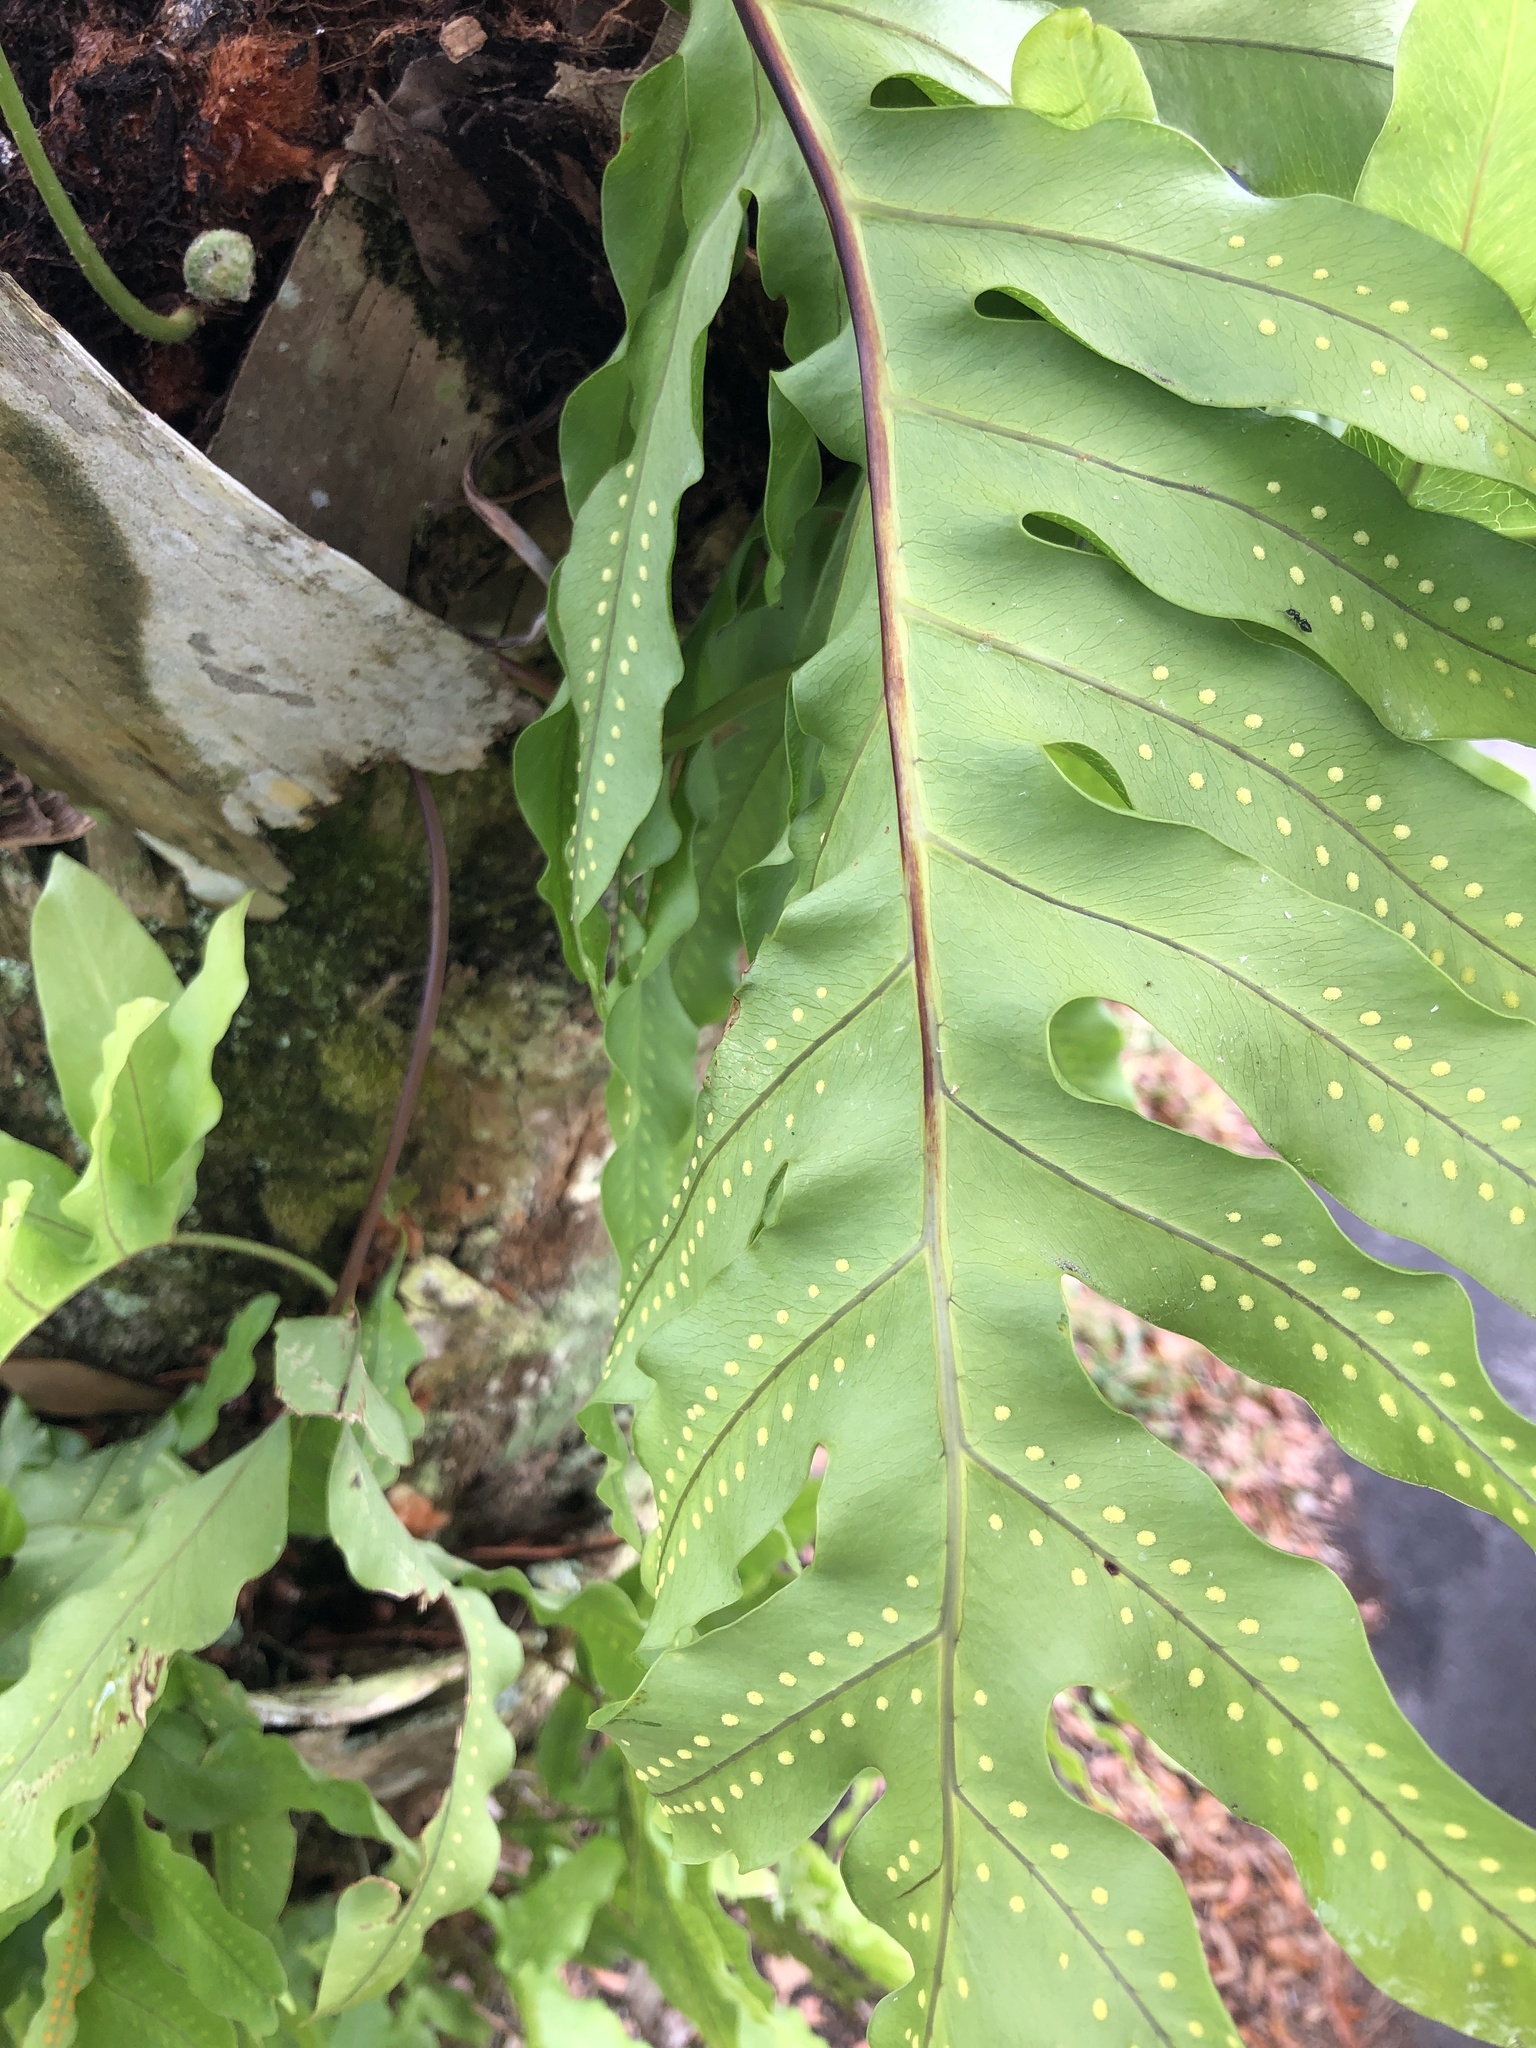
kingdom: Plantae
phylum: Tracheophyta
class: Polypodiopsida
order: Polypodiales
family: Polypodiaceae
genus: Phlebodium
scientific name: Phlebodium aureum
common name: Gold-foot fern
